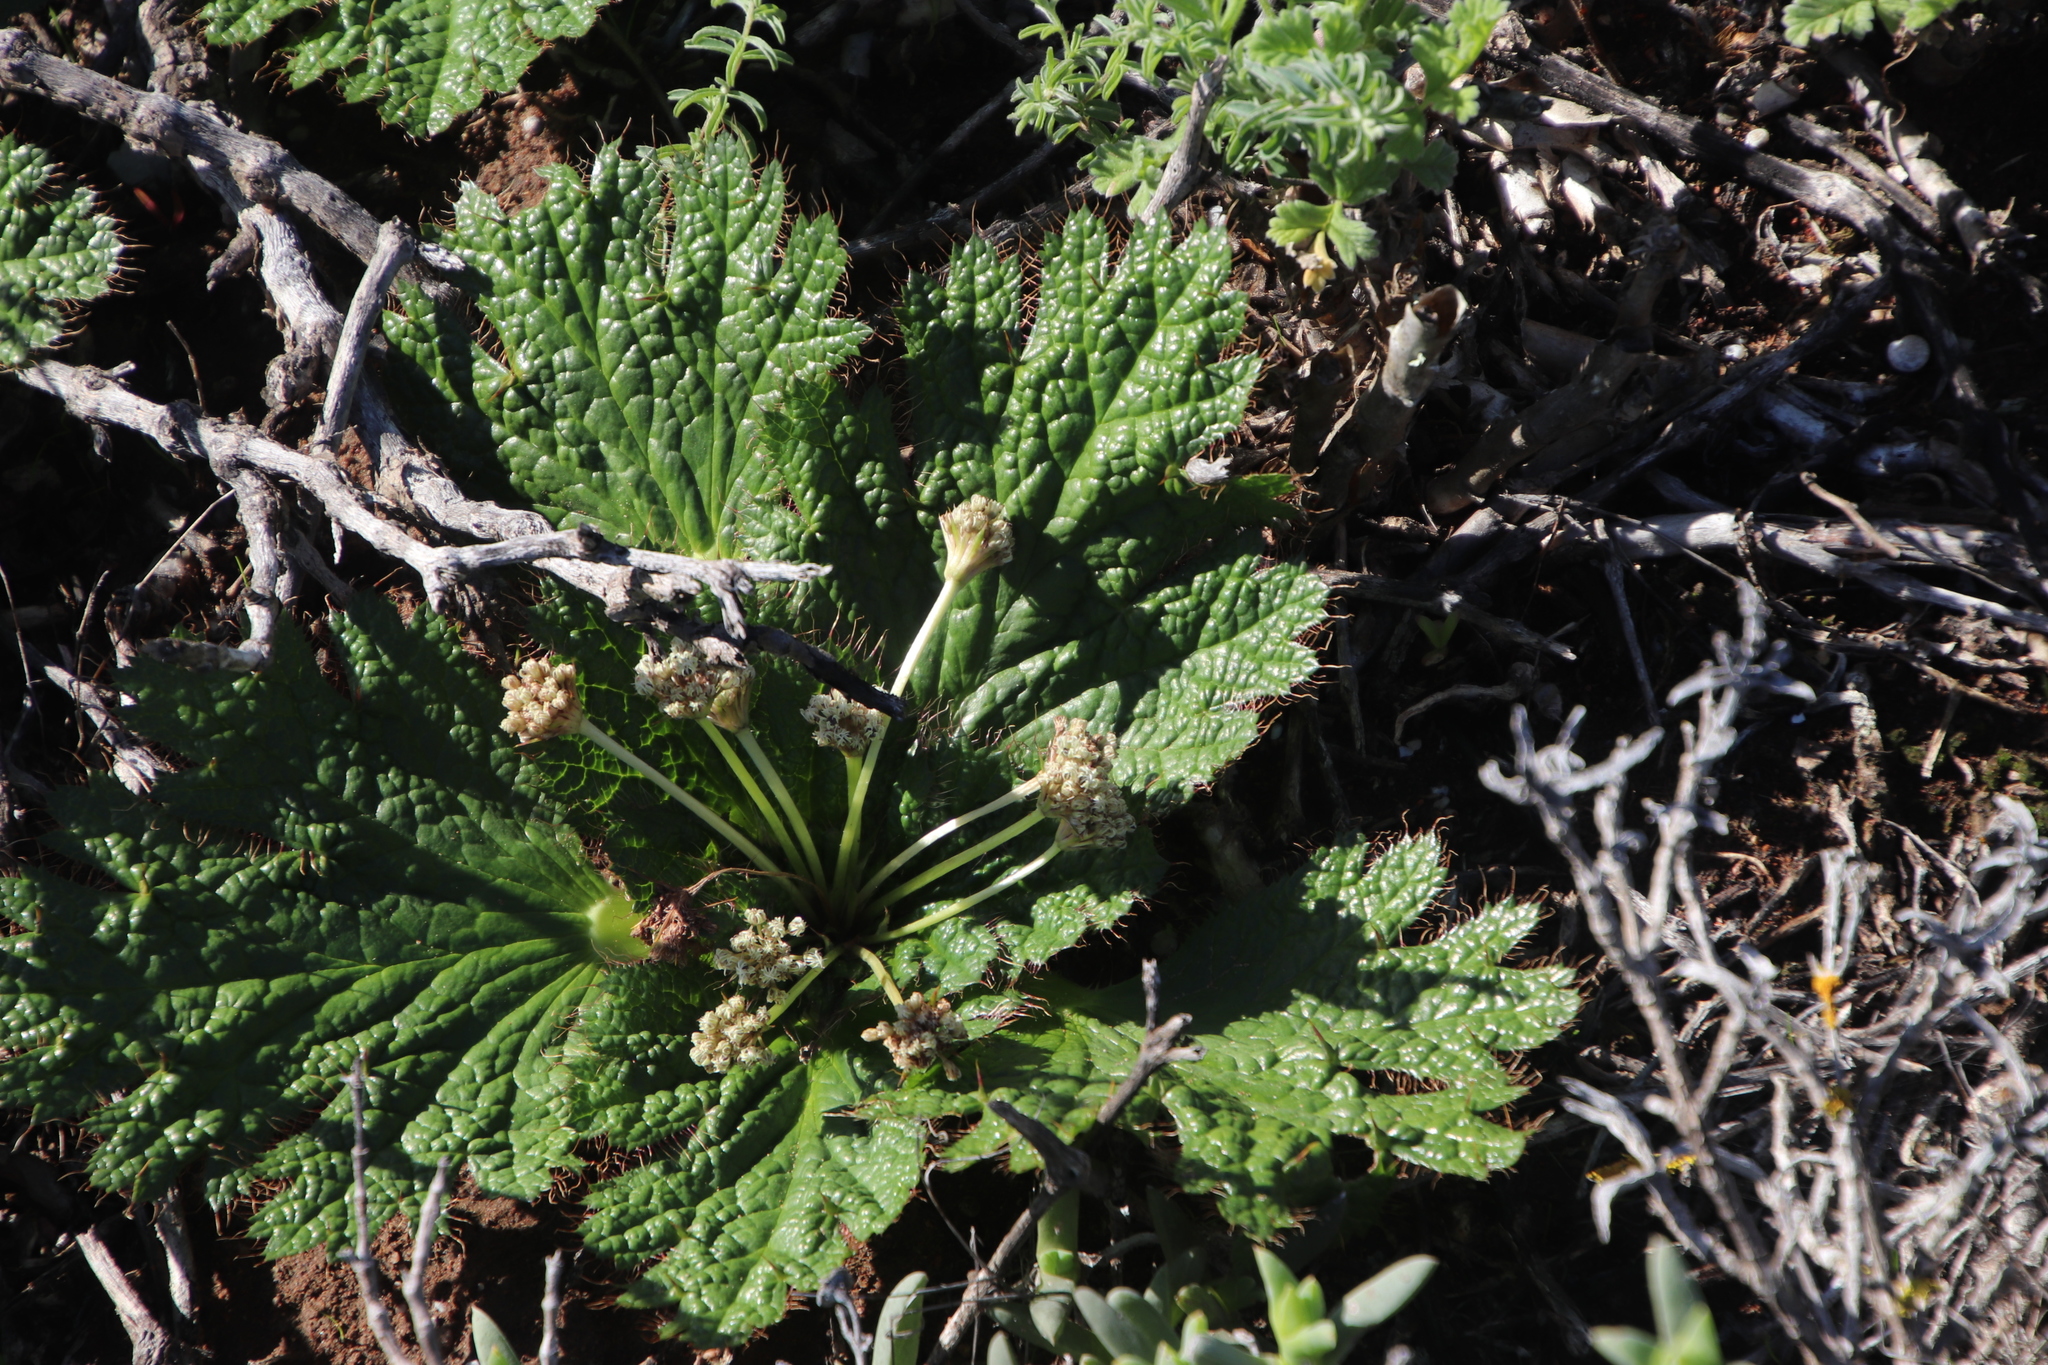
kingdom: Plantae
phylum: Tracheophyta
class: Magnoliopsida
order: Apiales
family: Apiaceae
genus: Arctopus
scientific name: Arctopus echinatus
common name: Platdoring
